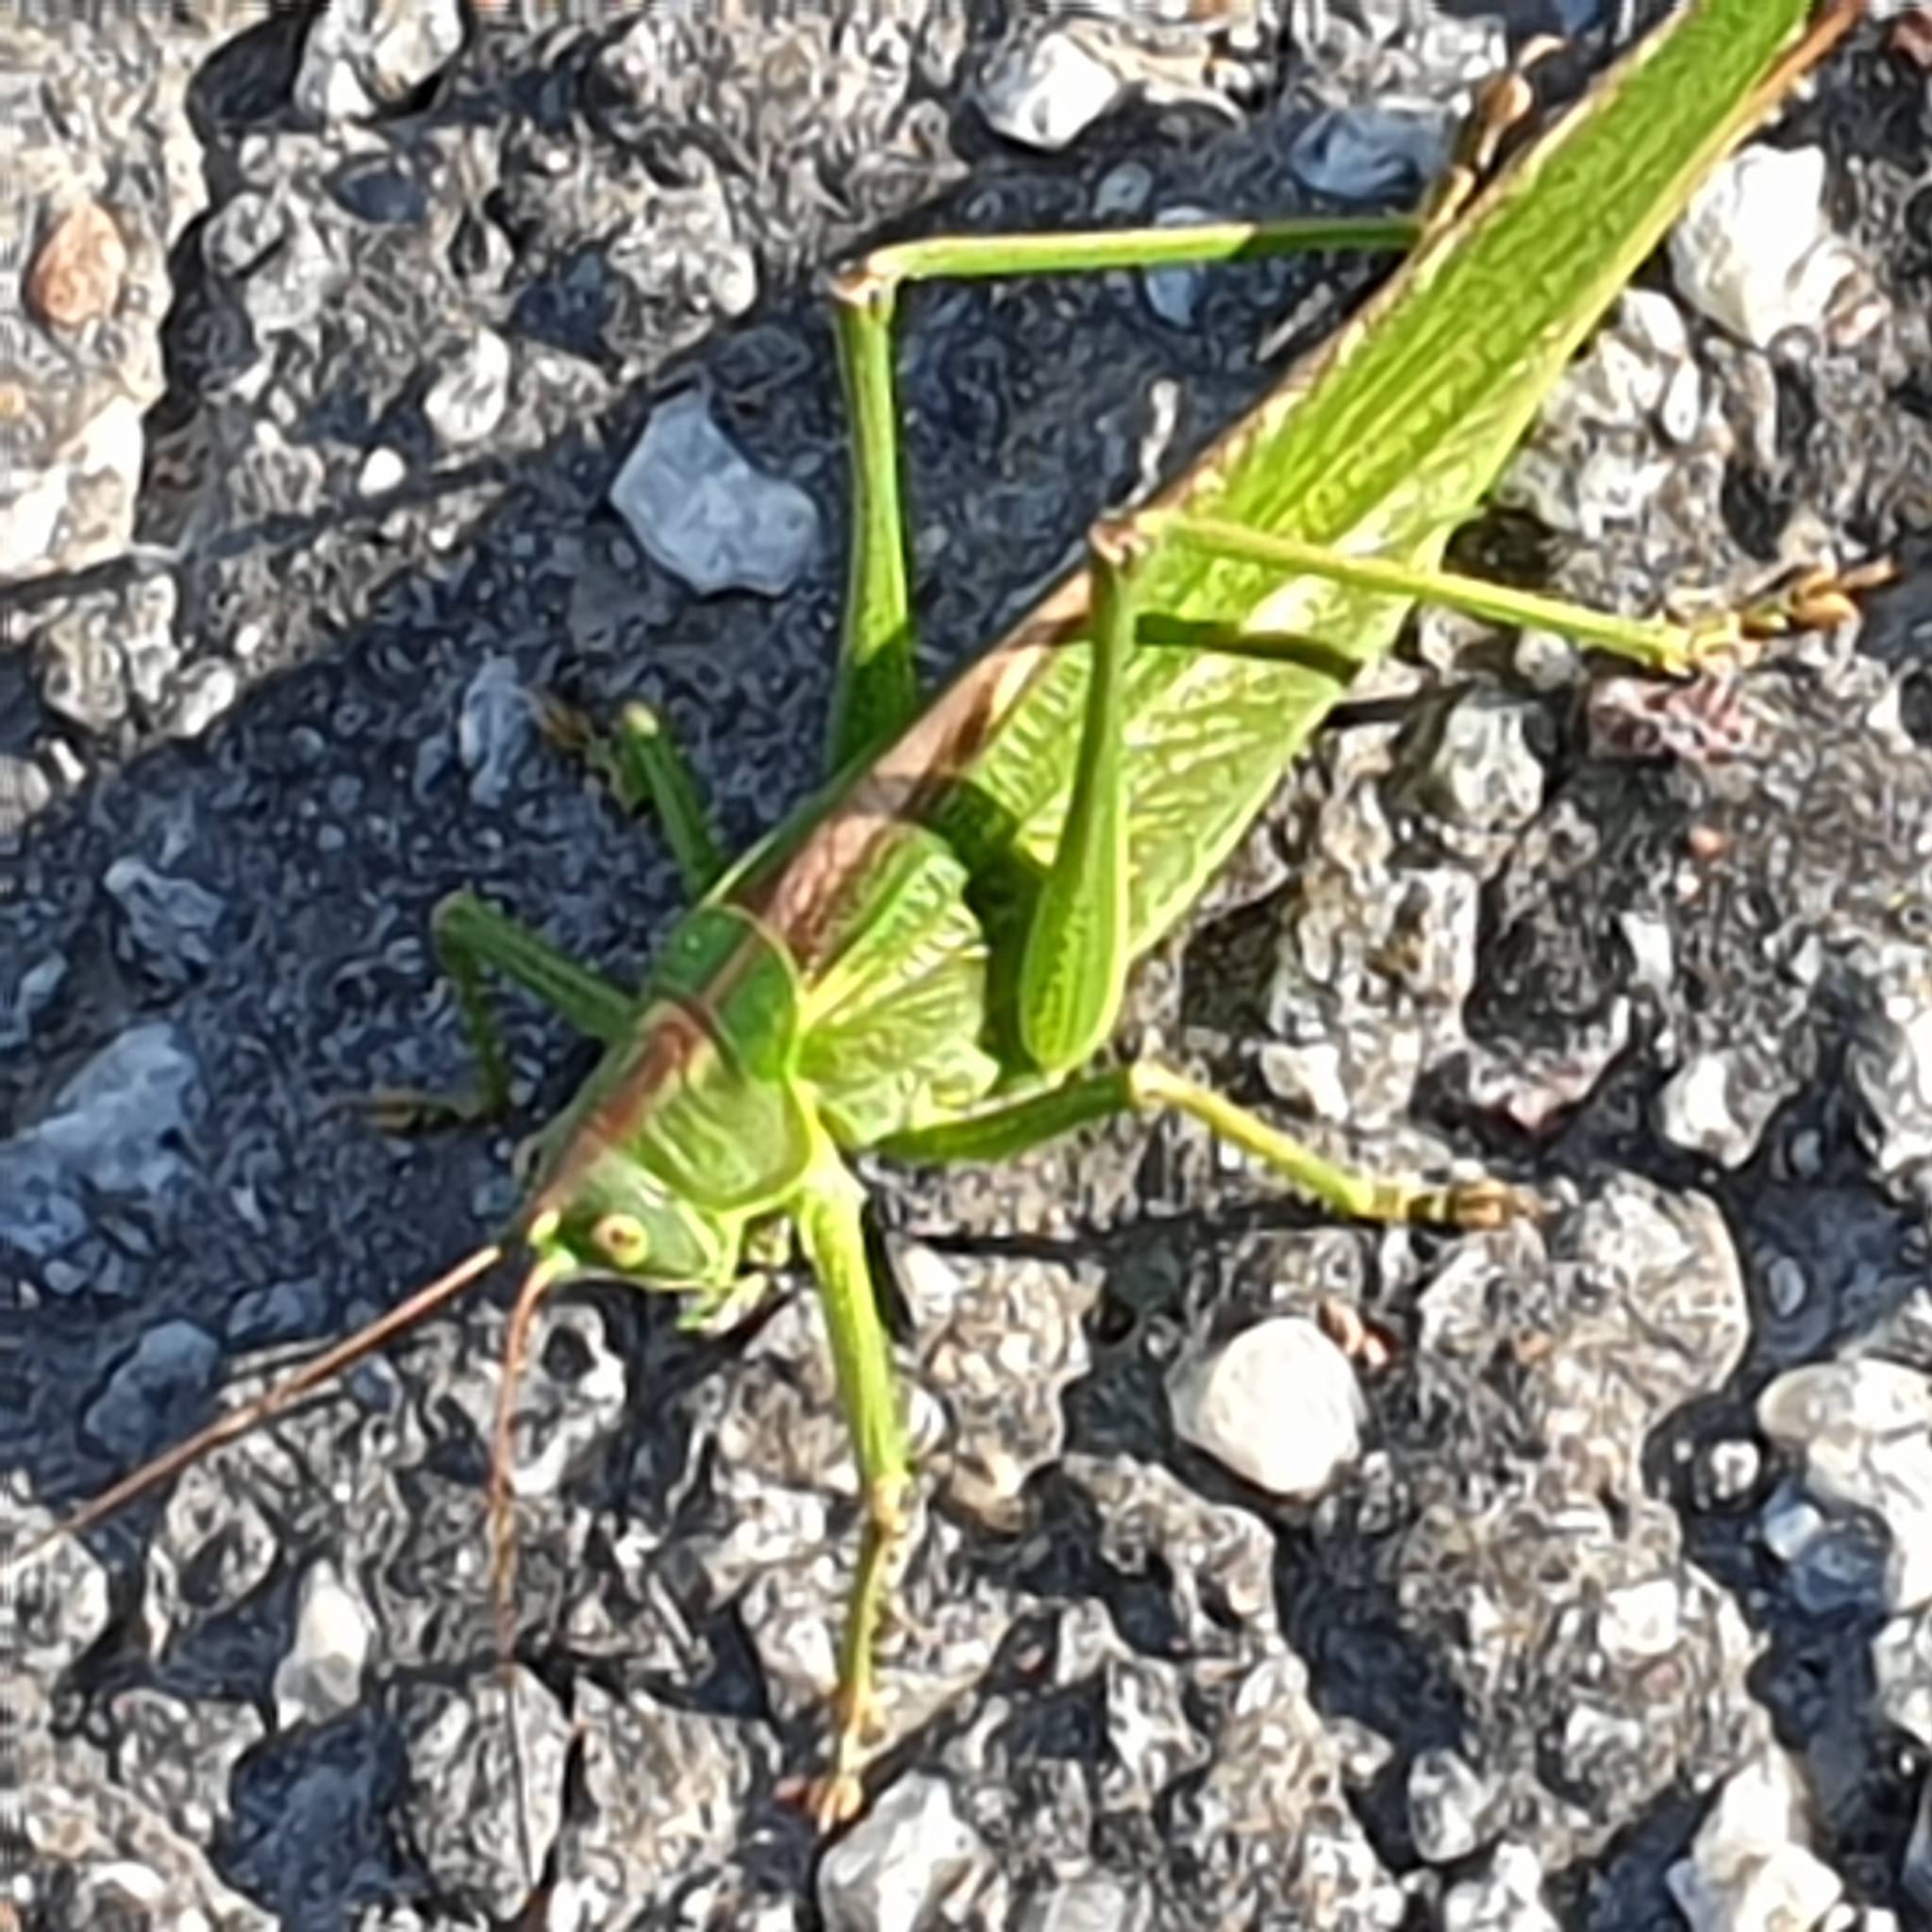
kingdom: Animalia
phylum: Arthropoda
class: Insecta
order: Orthoptera
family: Tettigoniidae
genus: Tettigonia
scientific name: Tettigonia viridissima
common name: Great green bush-cricket
